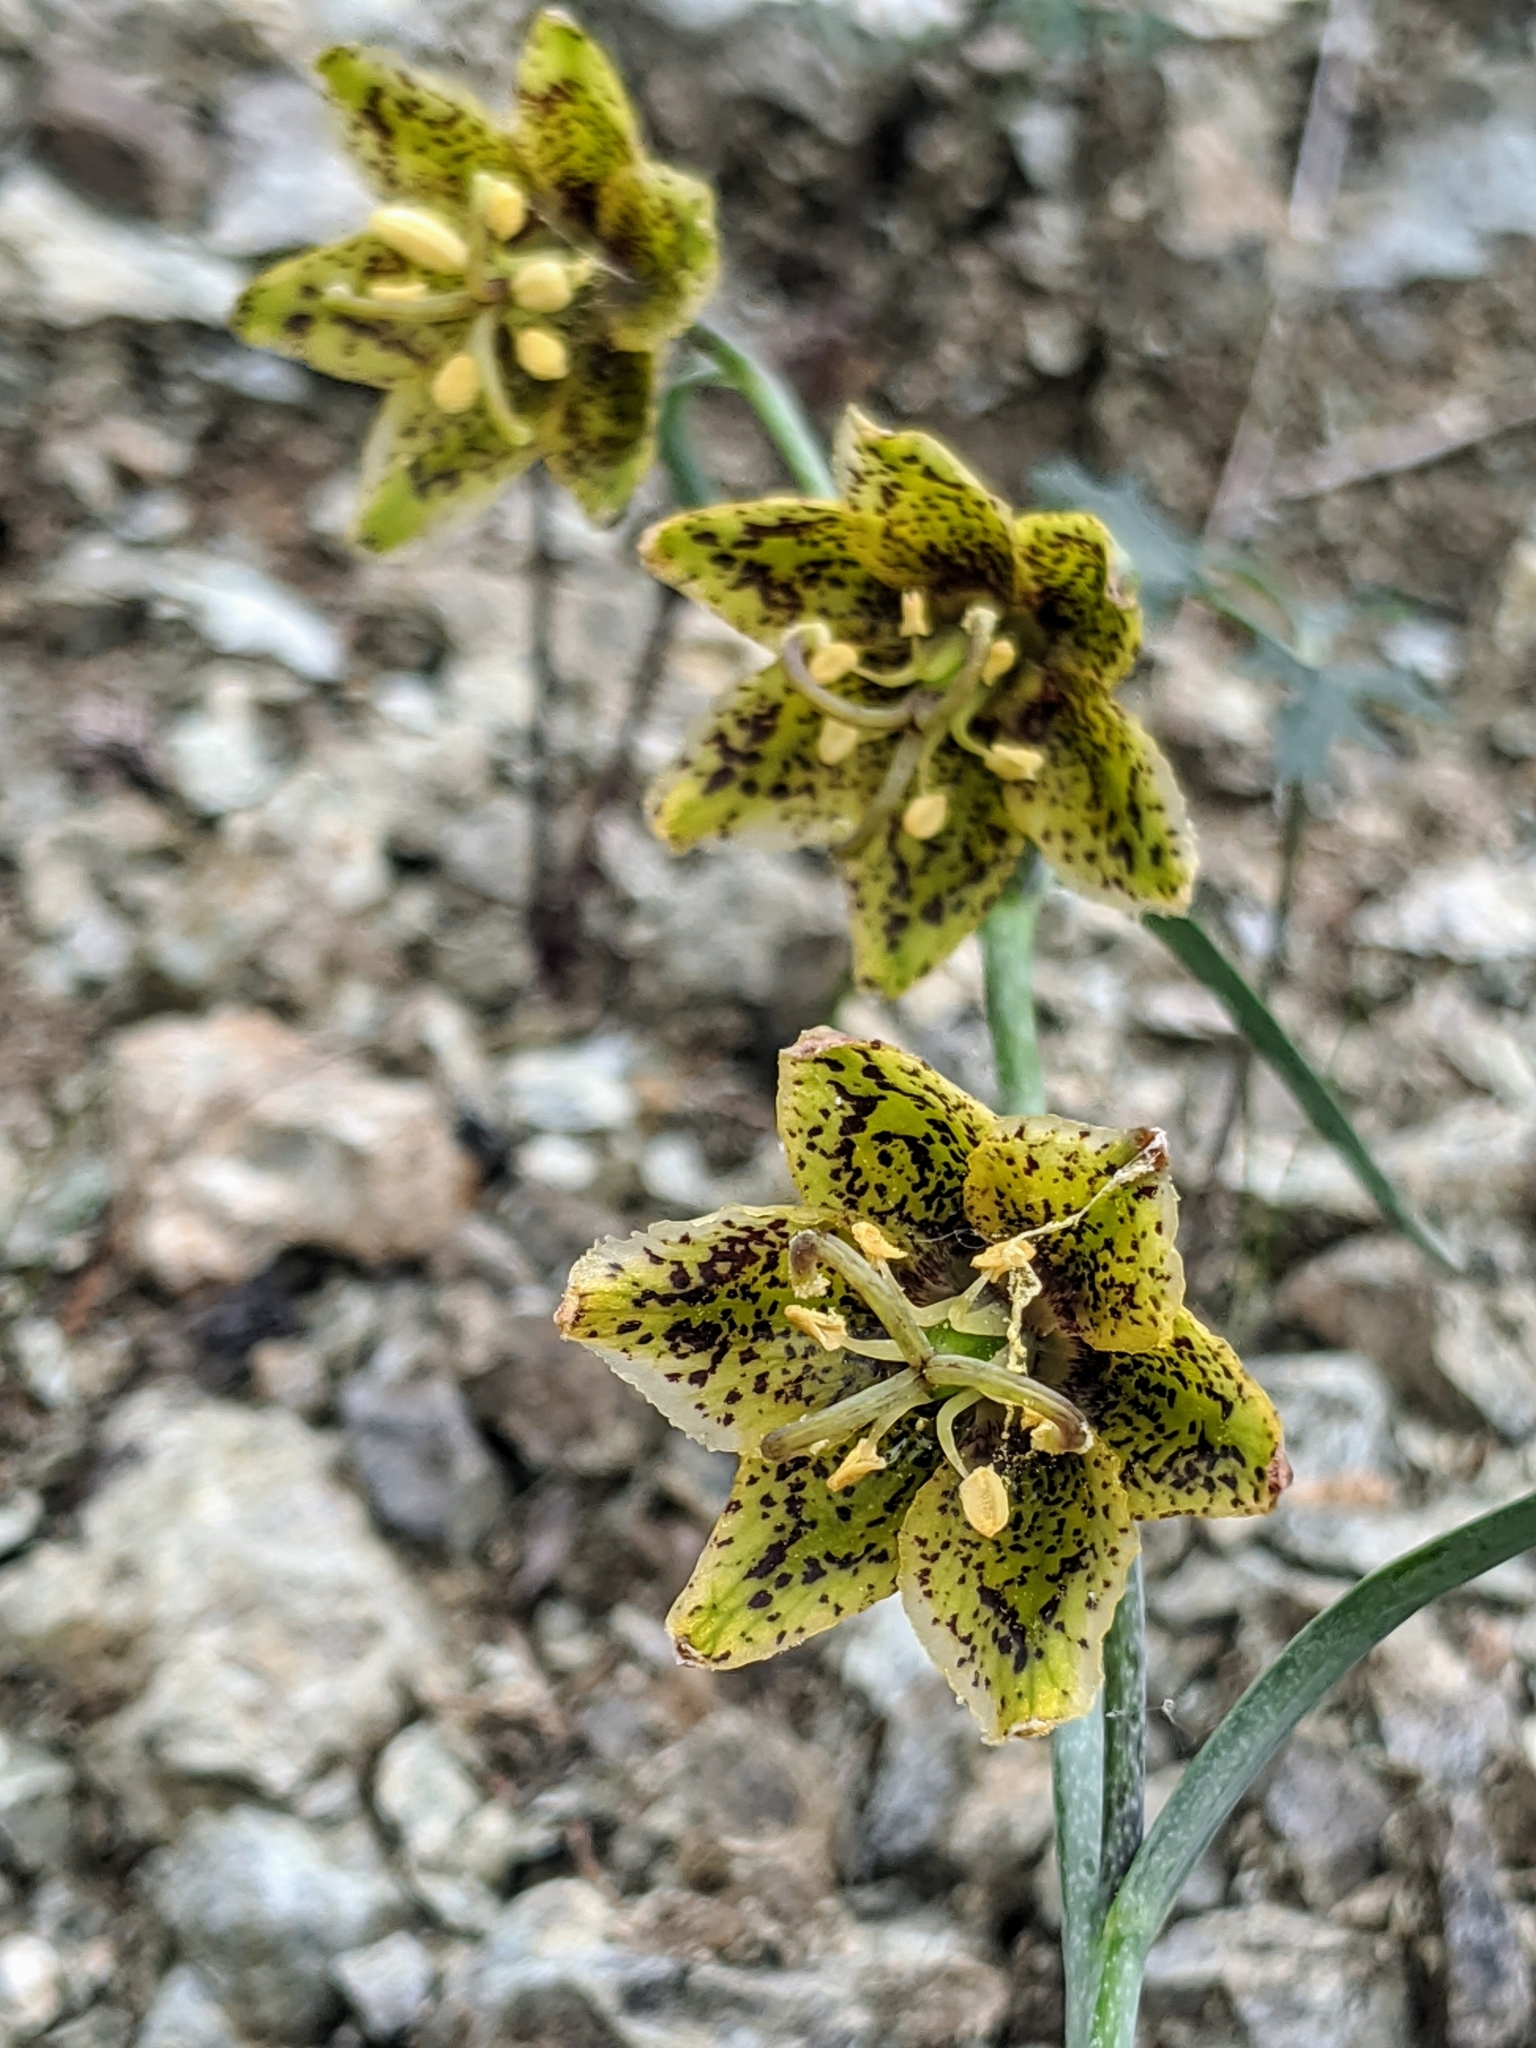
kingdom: Plantae
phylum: Tracheophyta
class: Liliopsida
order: Liliales
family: Liliaceae
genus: Fritillaria
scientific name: Fritillaria ojaiensis
